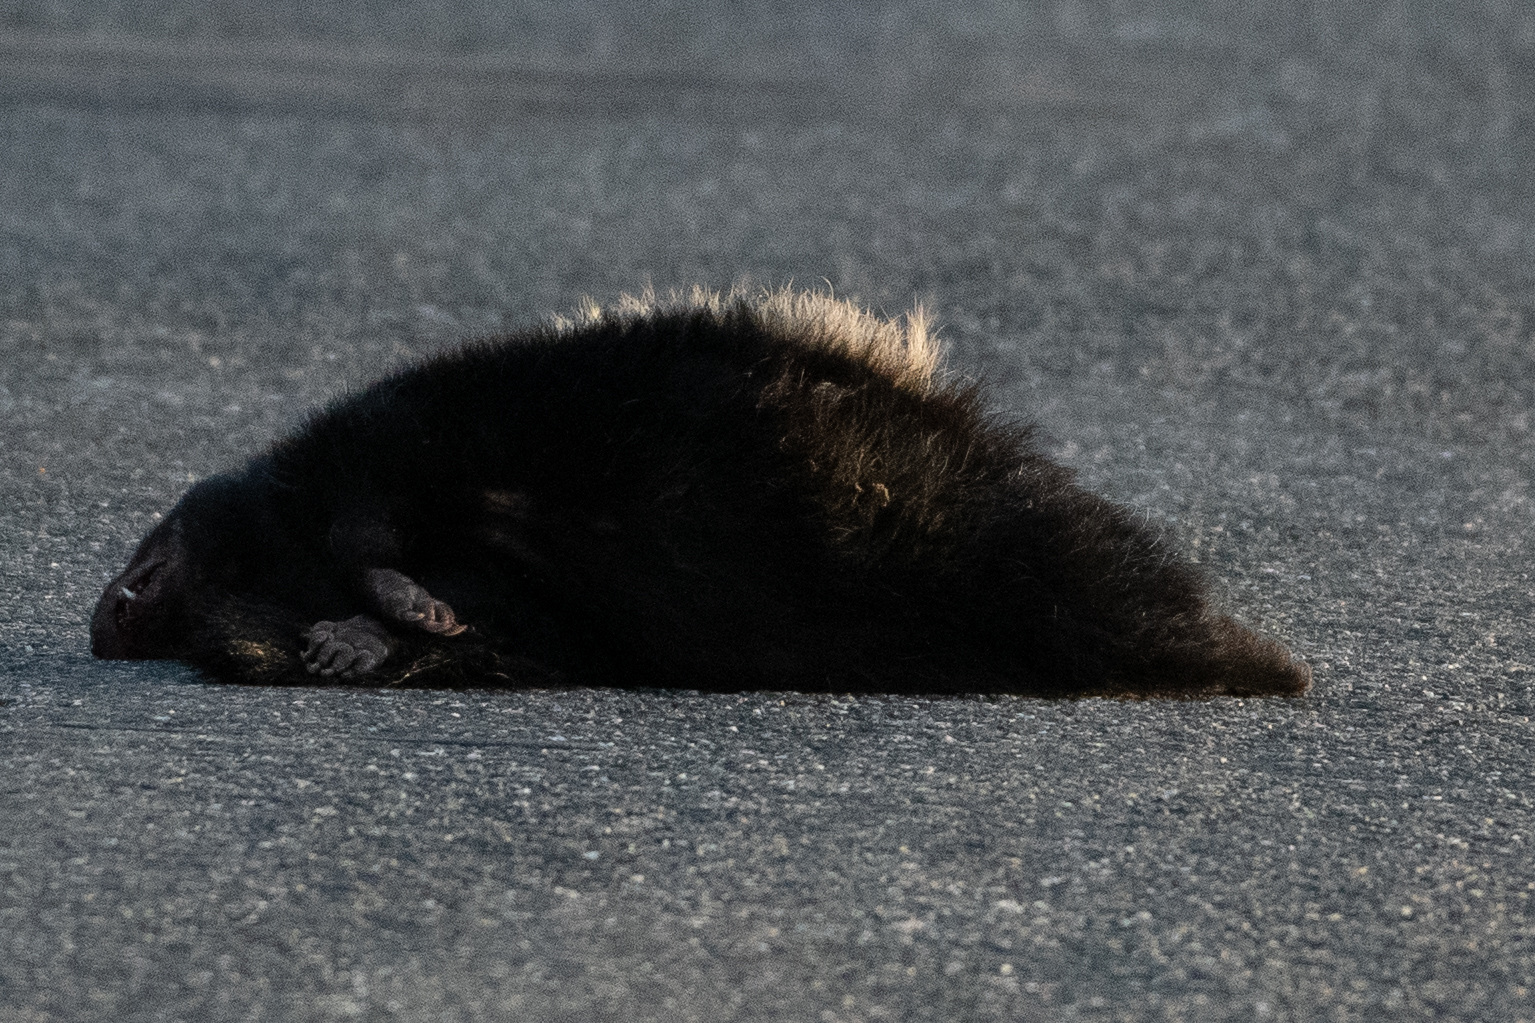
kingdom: Animalia
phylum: Chordata
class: Mammalia
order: Carnivora
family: Mephitidae
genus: Mephitis
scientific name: Mephitis mephitis
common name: Striped skunk
